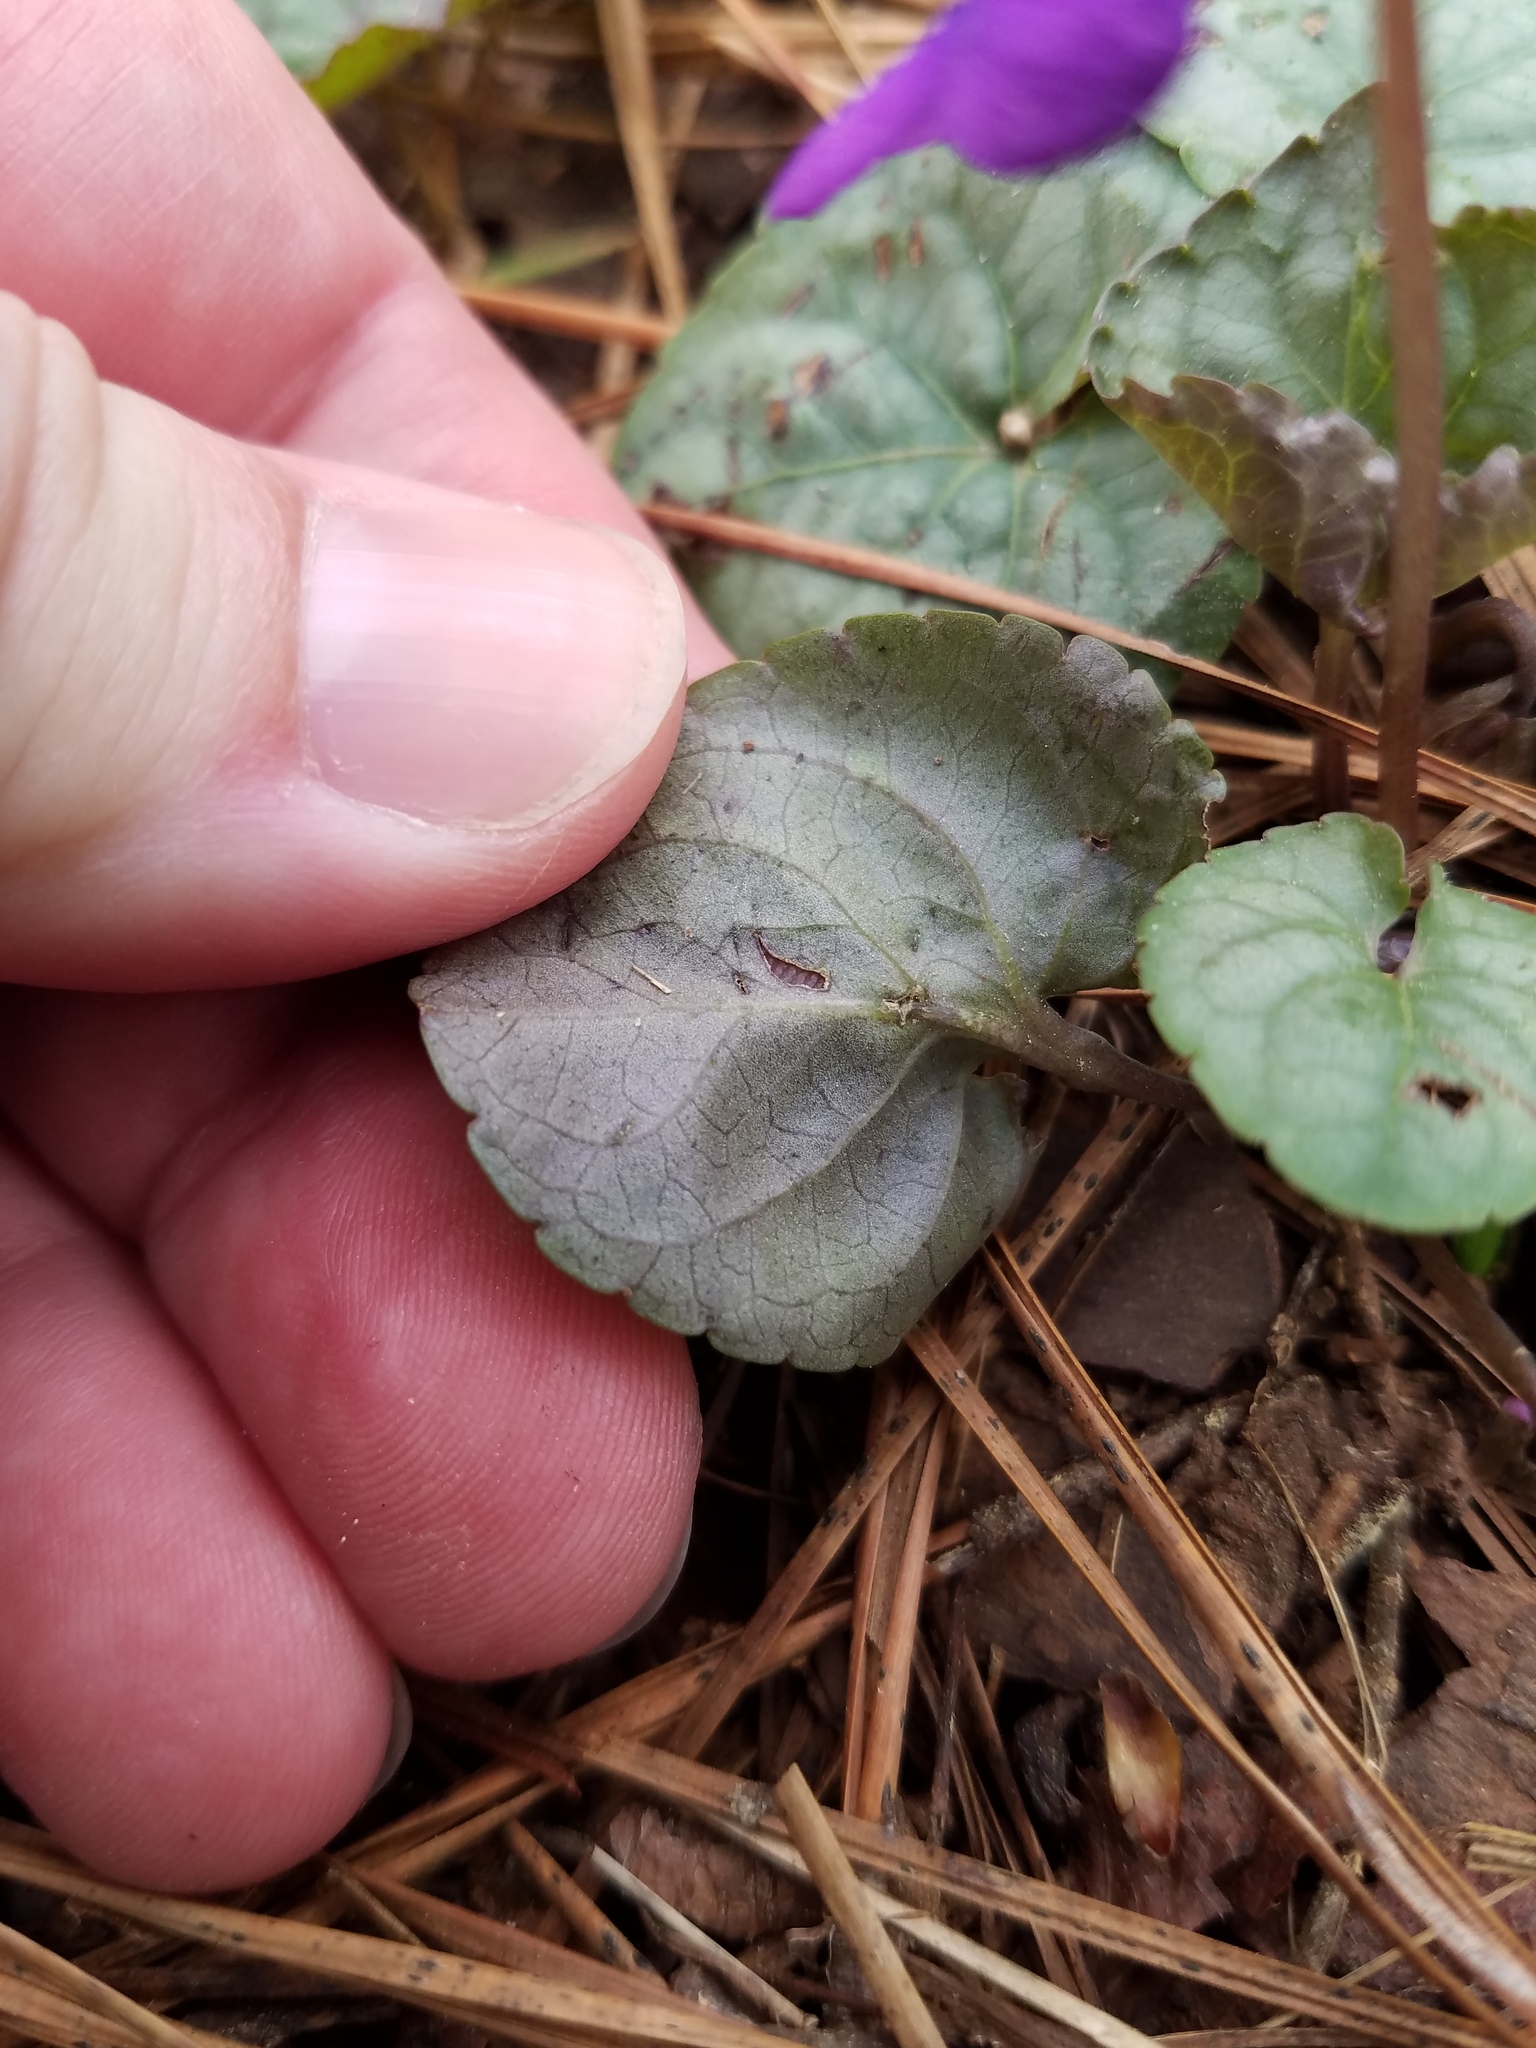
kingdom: Plantae
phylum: Tracheophyta
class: Magnoliopsida
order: Malpighiales
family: Violaceae
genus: Viola
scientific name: Viola hirsutula
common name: Southern wood violet
